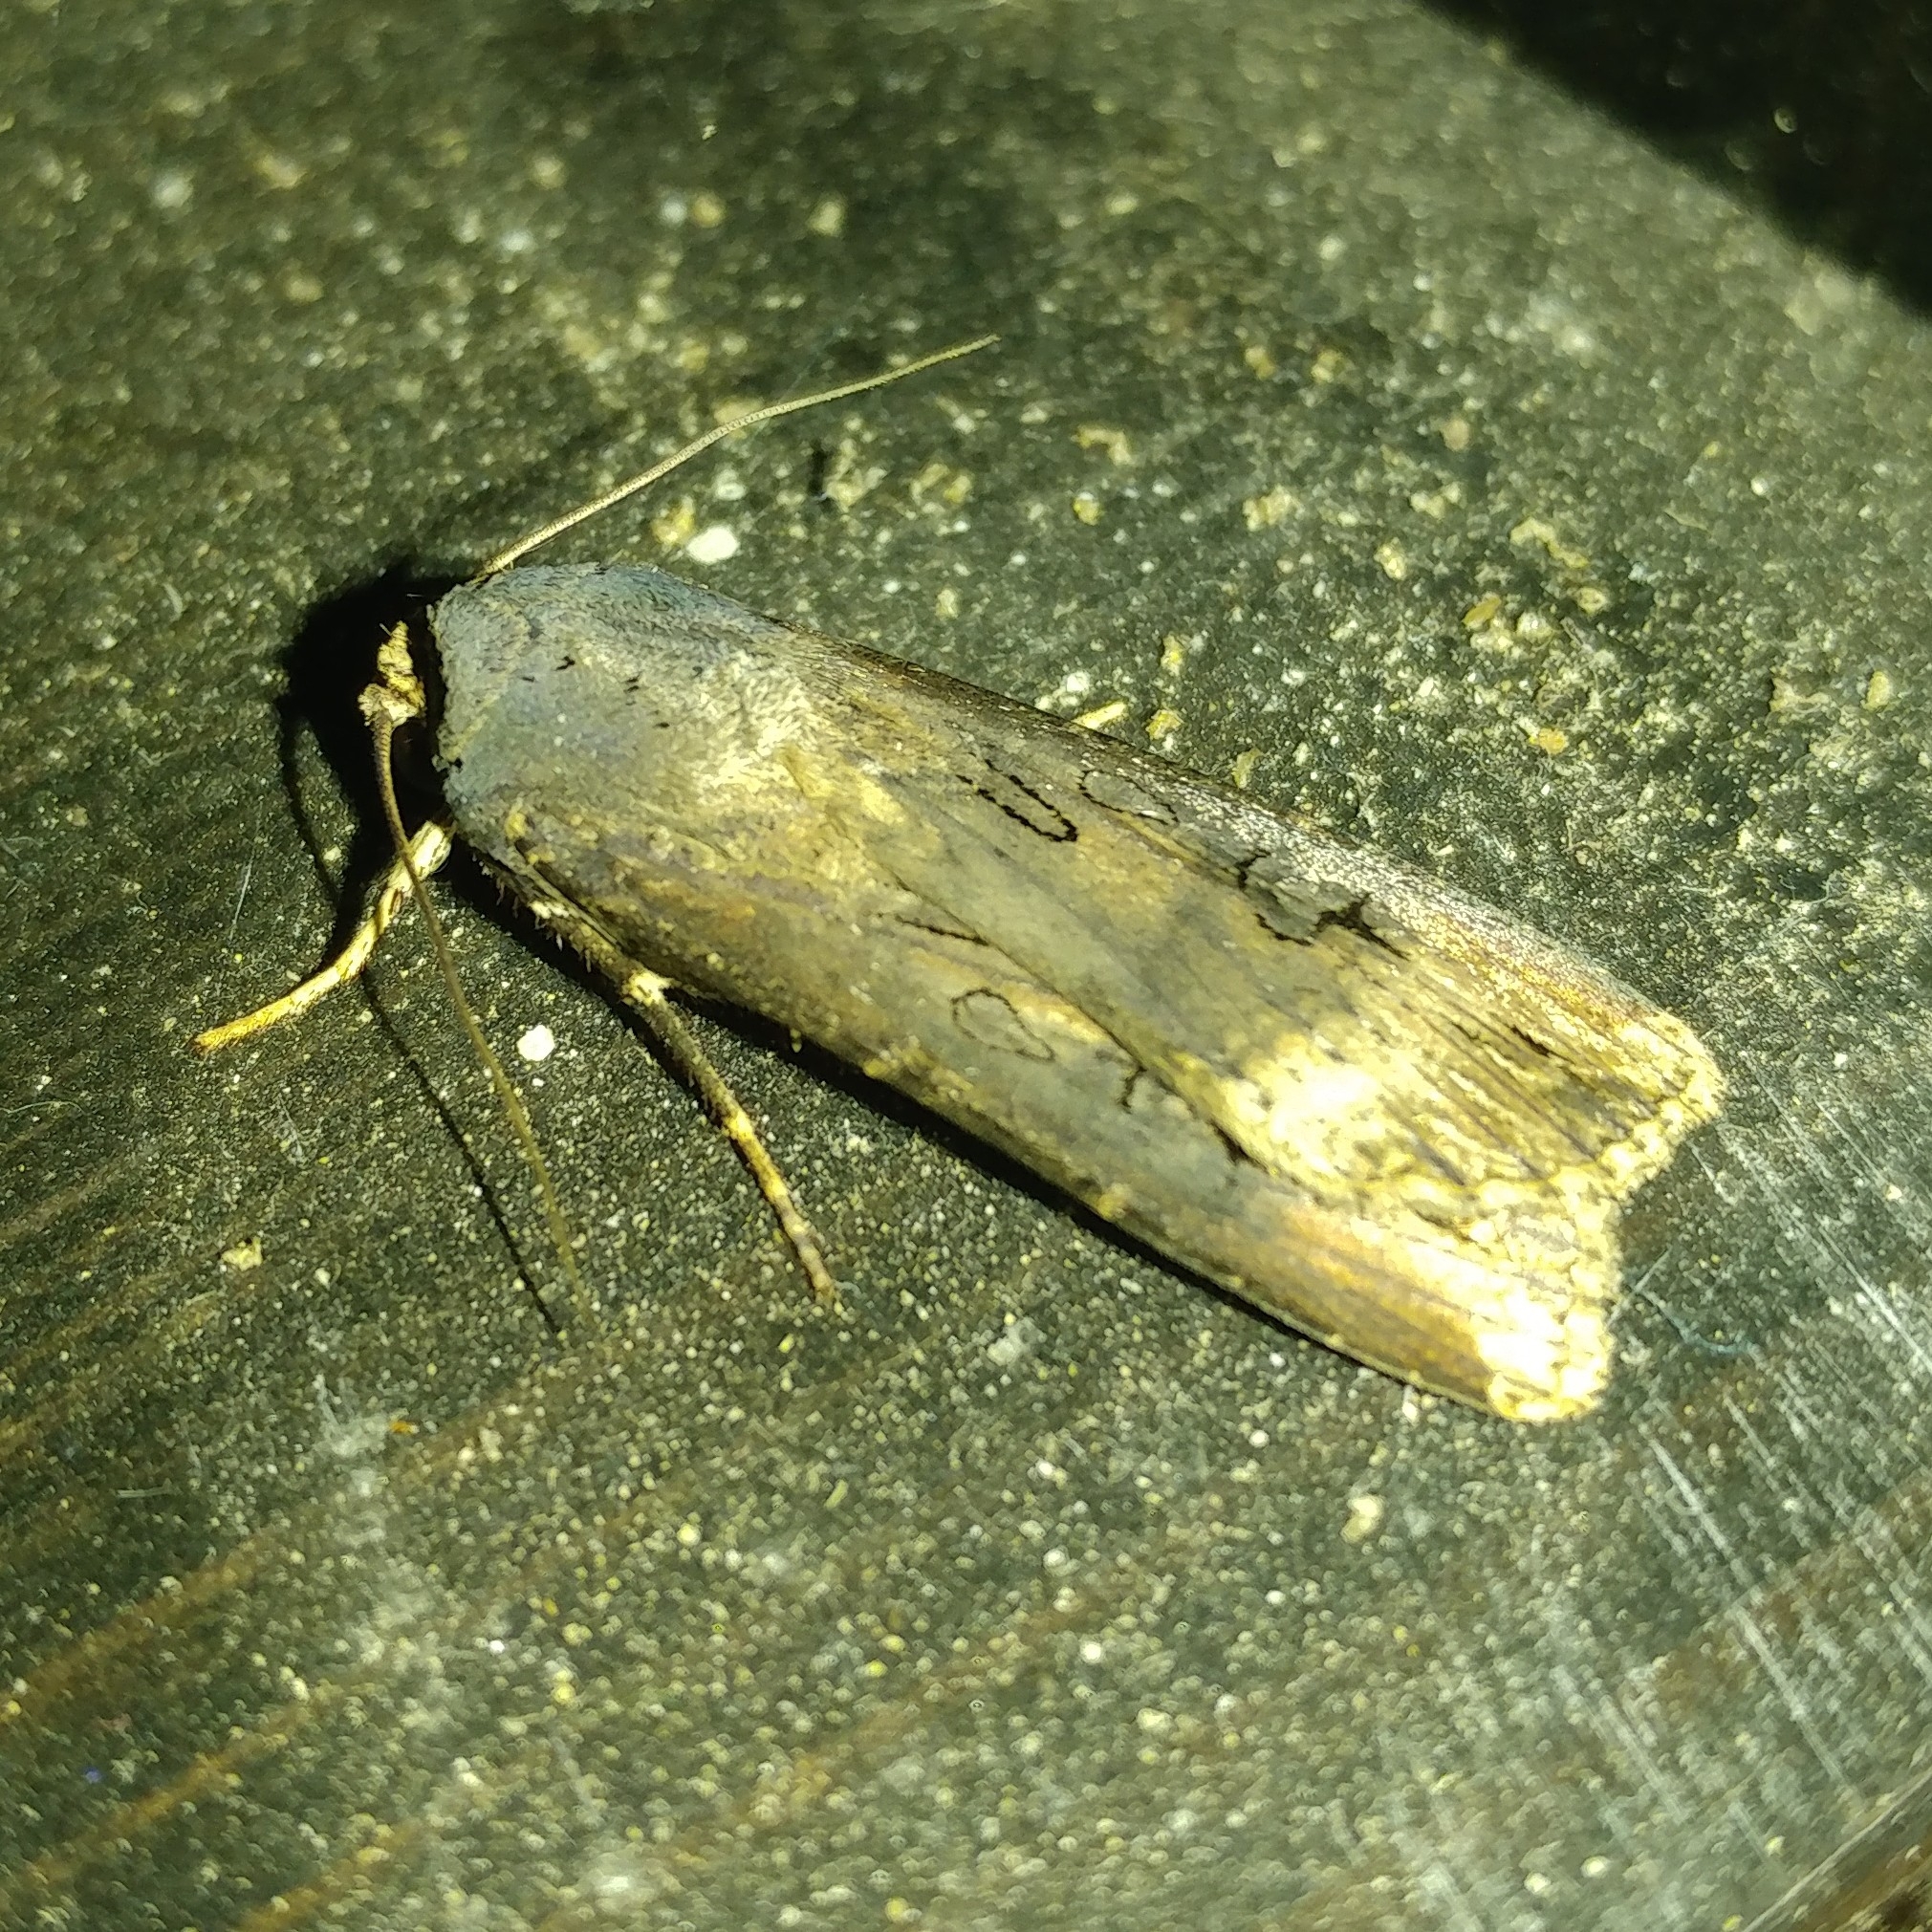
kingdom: Animalia
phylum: Arthropoda
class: Insecta
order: Lepidoptera
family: Noctuidae
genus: Agrotis
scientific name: Agrotis ipsilon
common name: Dark sword-grass
